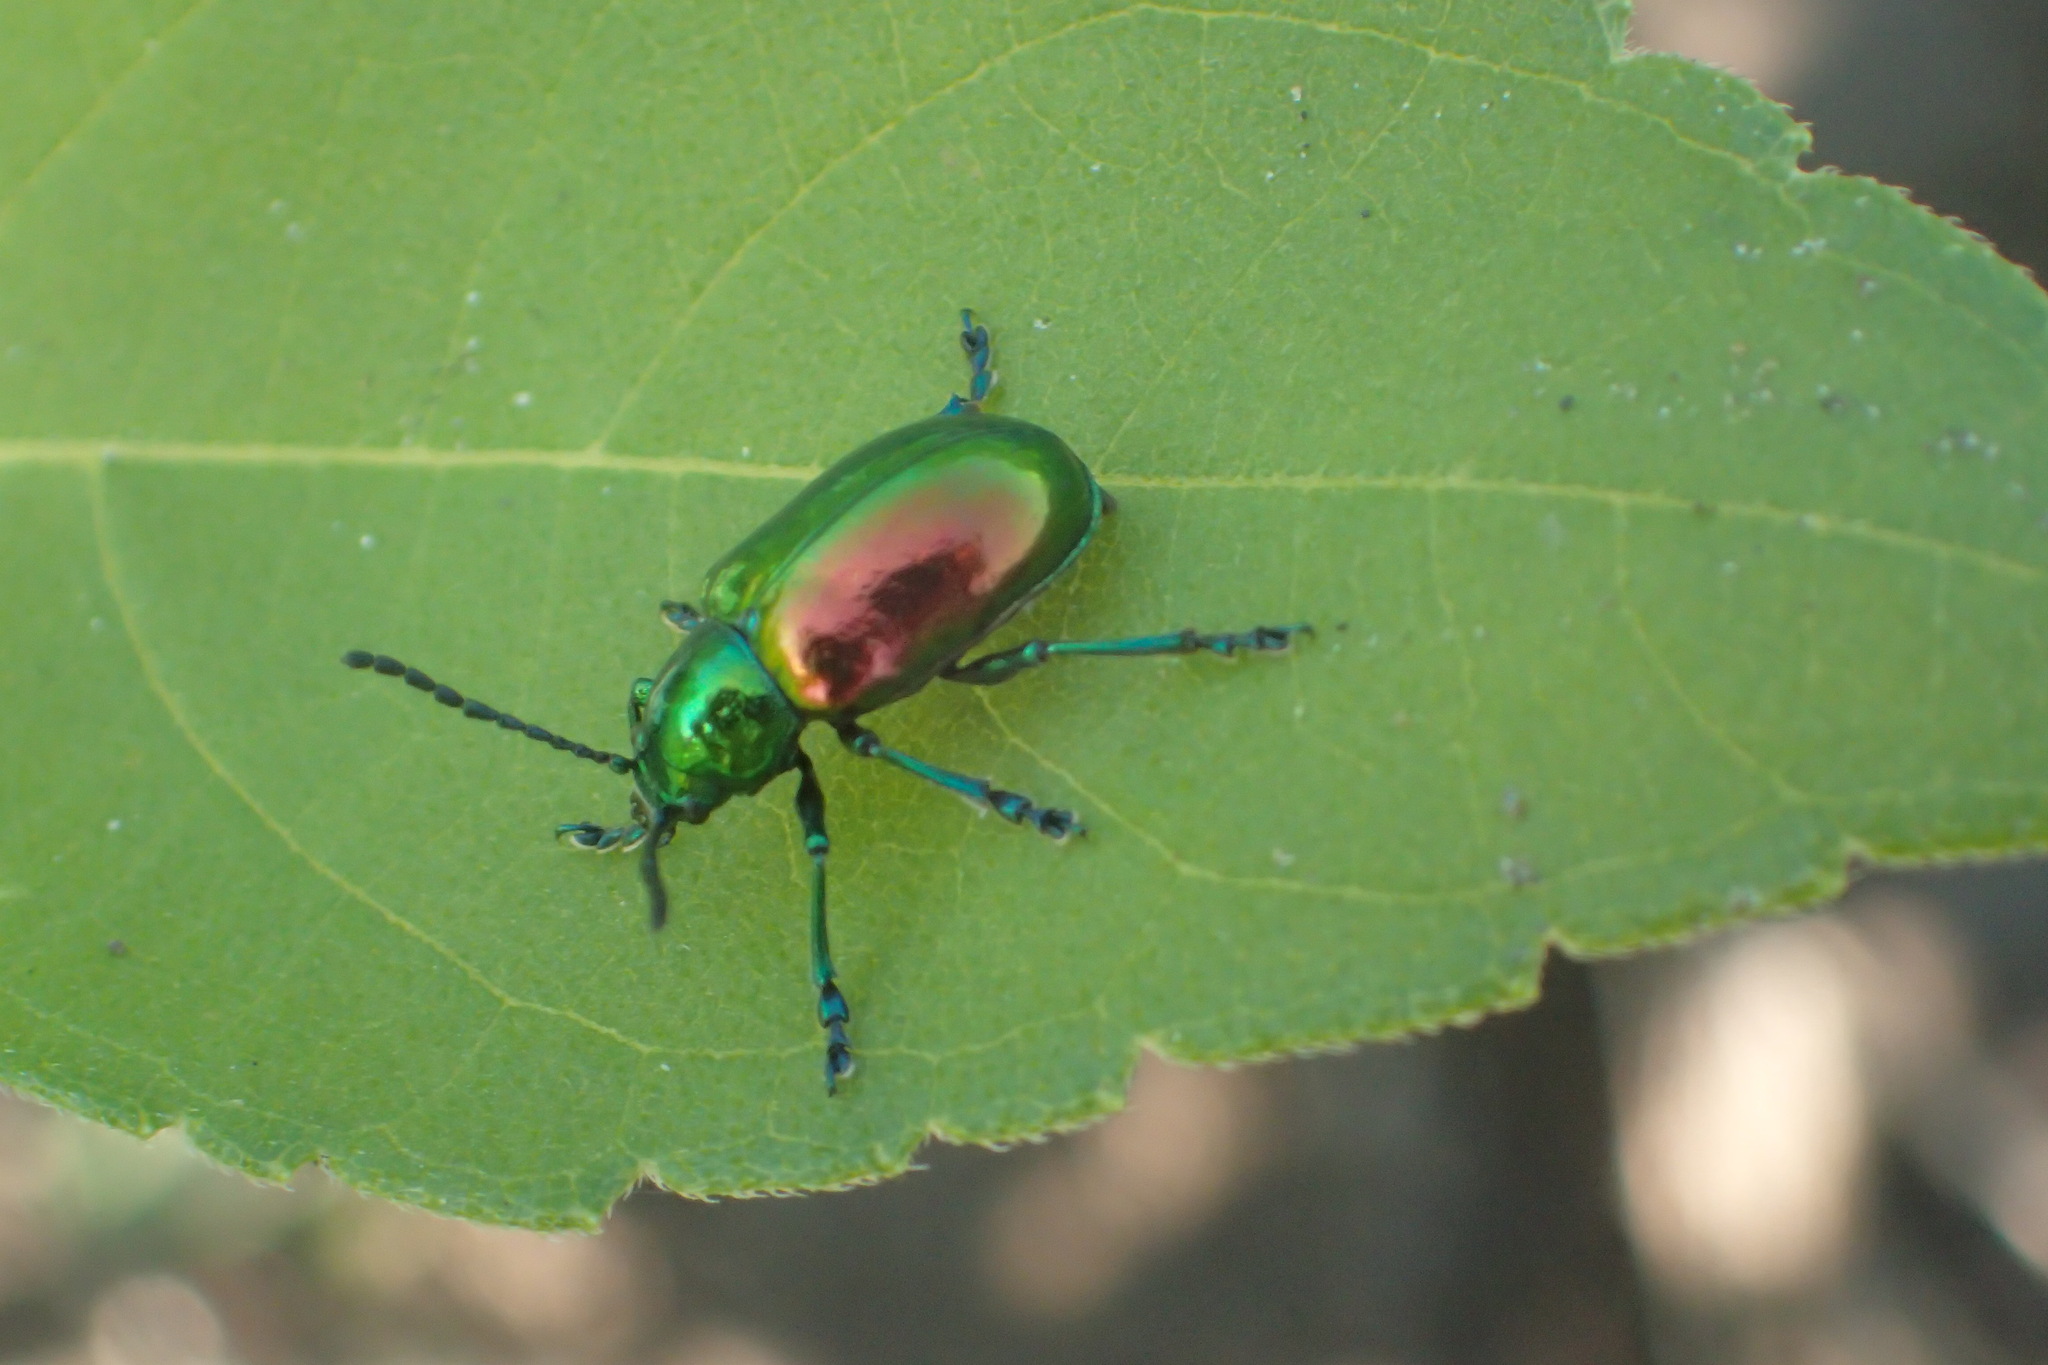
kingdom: Animalia
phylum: Arthropoda
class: Insecta
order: Coleoptera
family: Chrysomelidae
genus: Chrysochus
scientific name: Chrysochus auratus
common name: Dogbane leaf beetle
